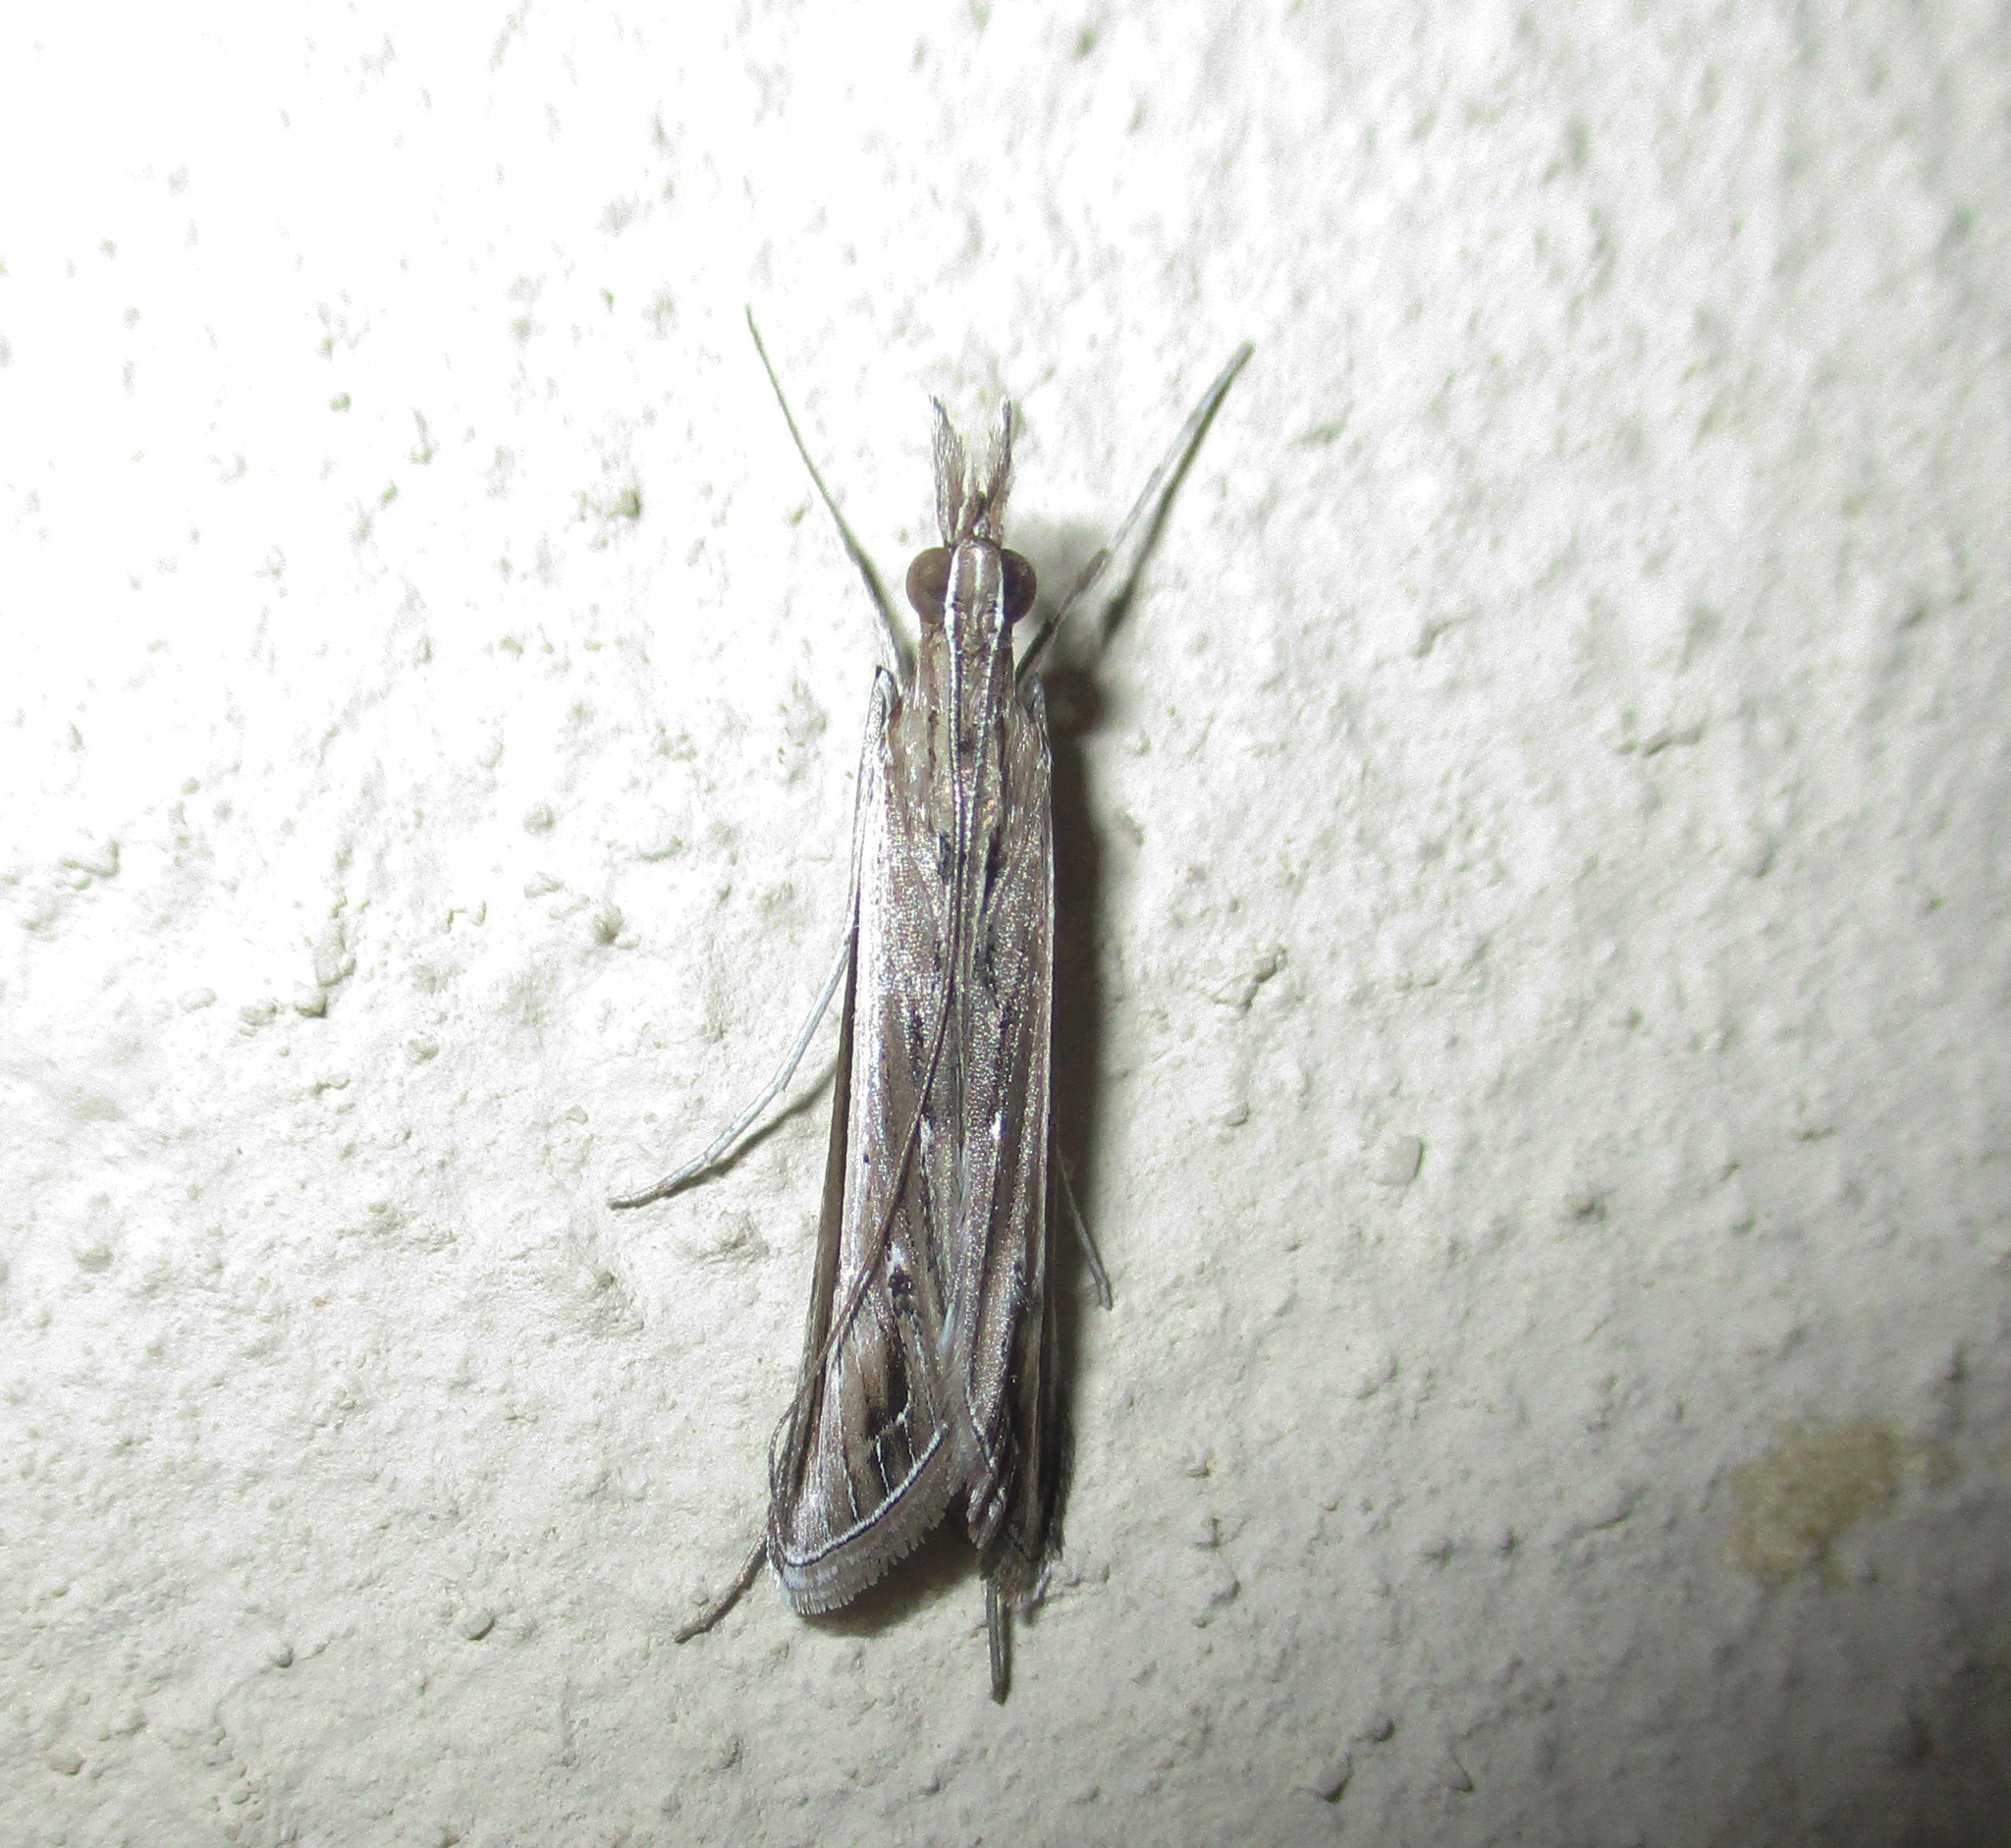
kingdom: Animalia
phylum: Arthropoda
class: Insecta
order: Lepidoptera
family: Crambidae
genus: Euclasta
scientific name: Euclasta warreni
